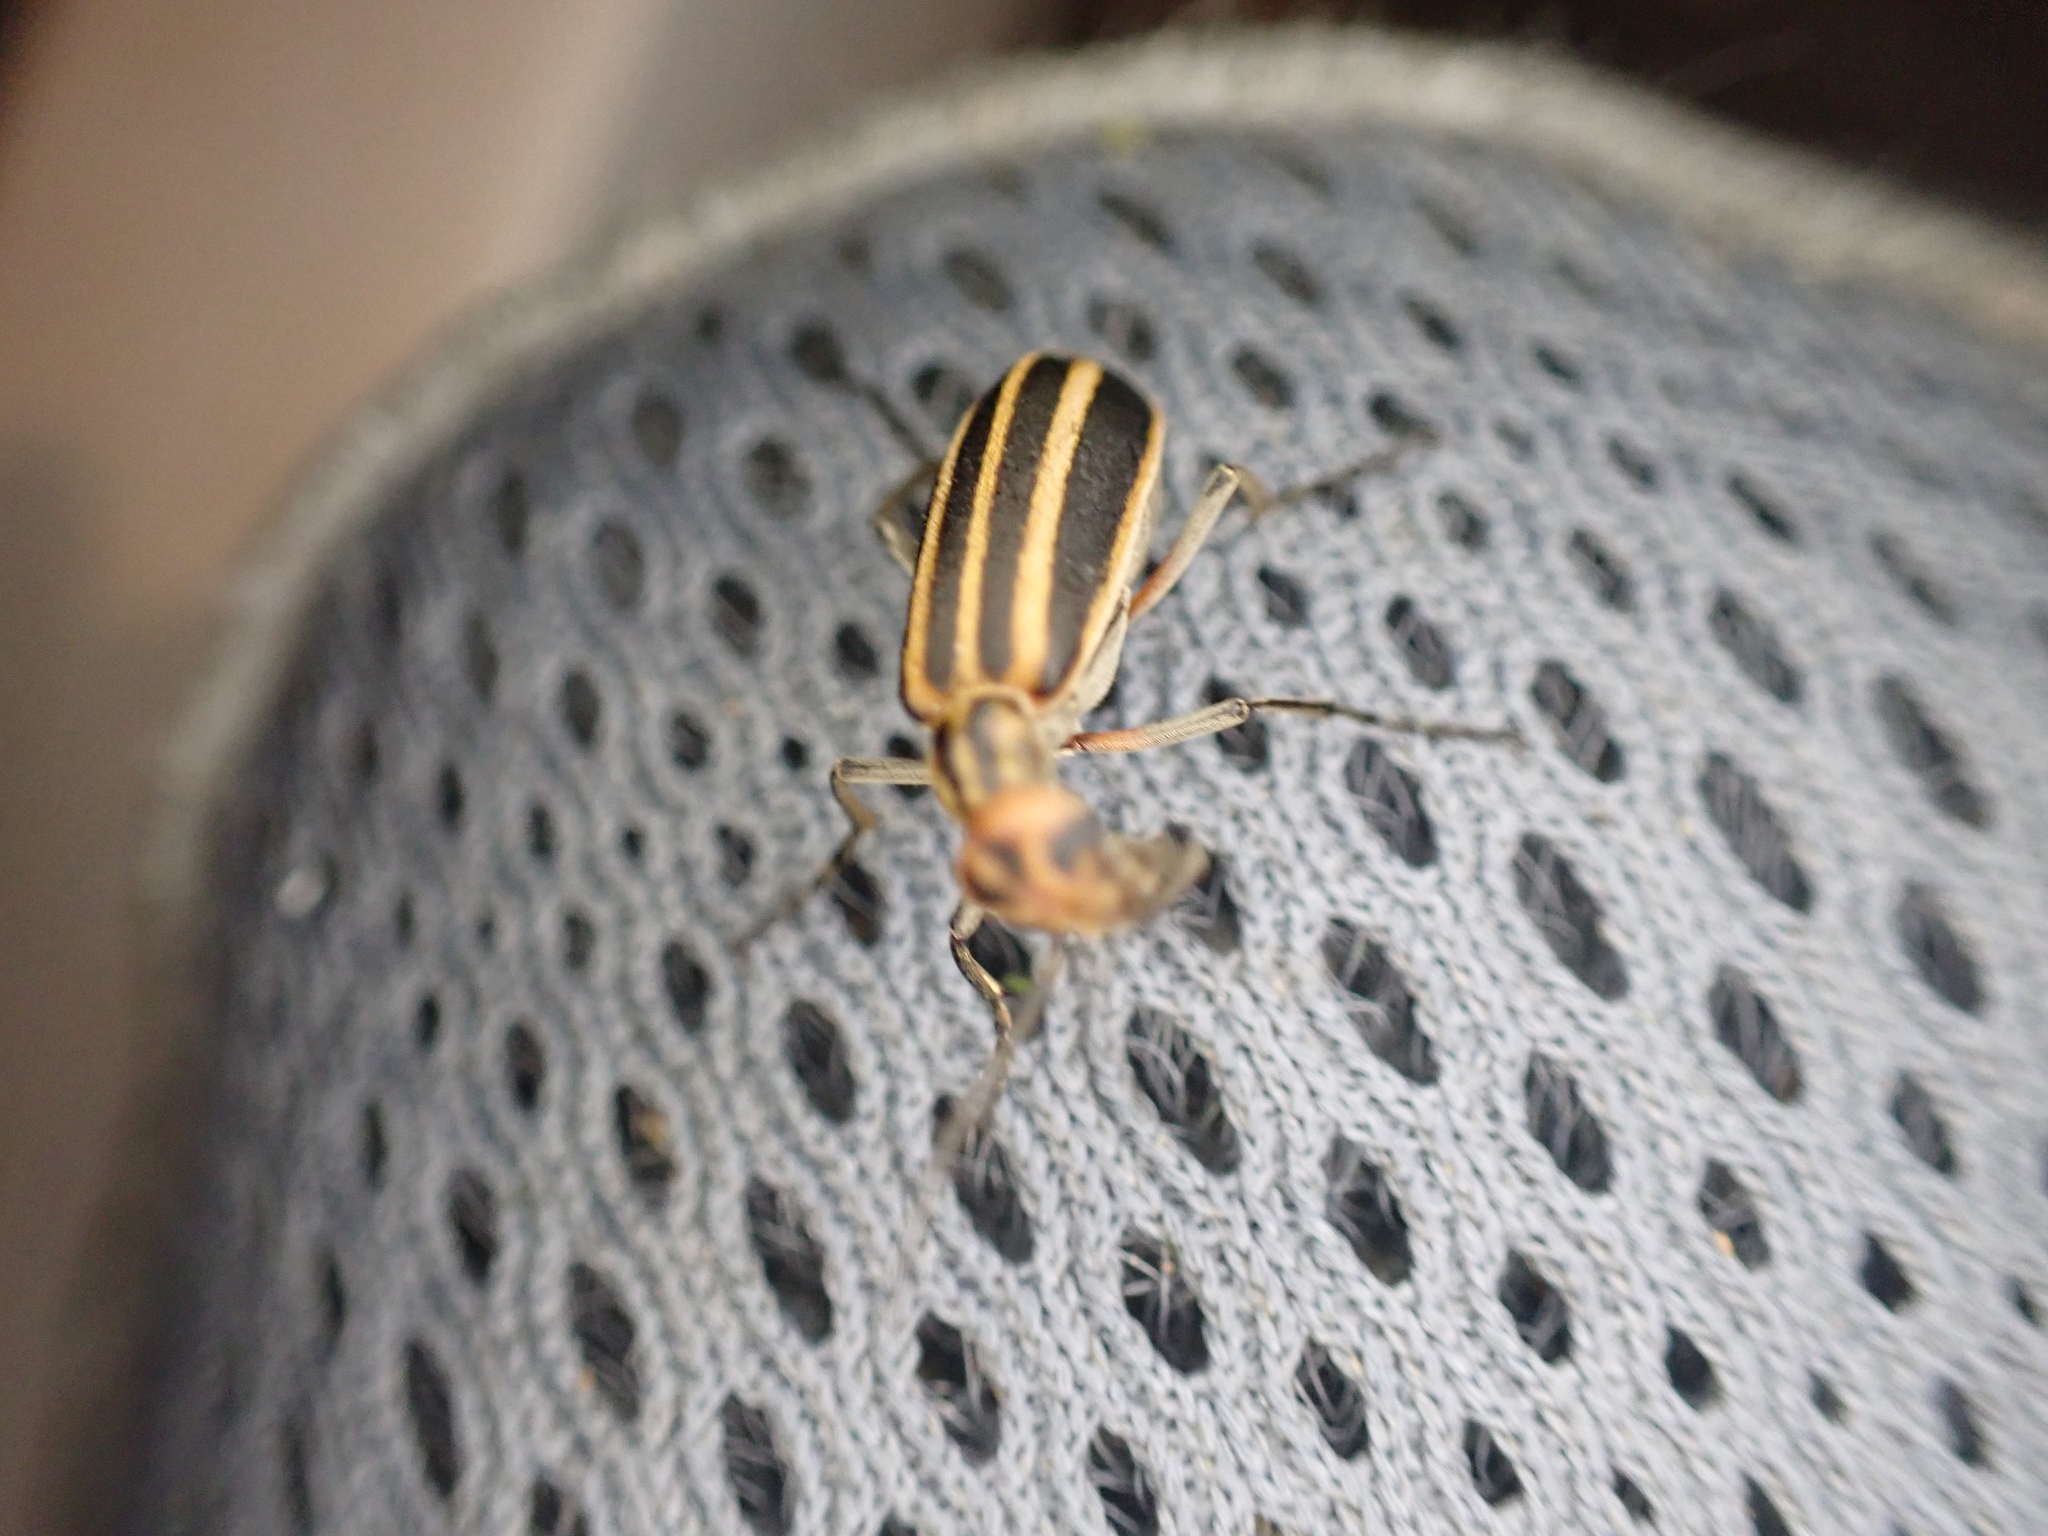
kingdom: Animalia
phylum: Arthropoda
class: Insecta
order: Coleoptera
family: Meloidae
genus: Epicauta
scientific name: Epicauta vittata
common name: Old-fashioned potato beetle
